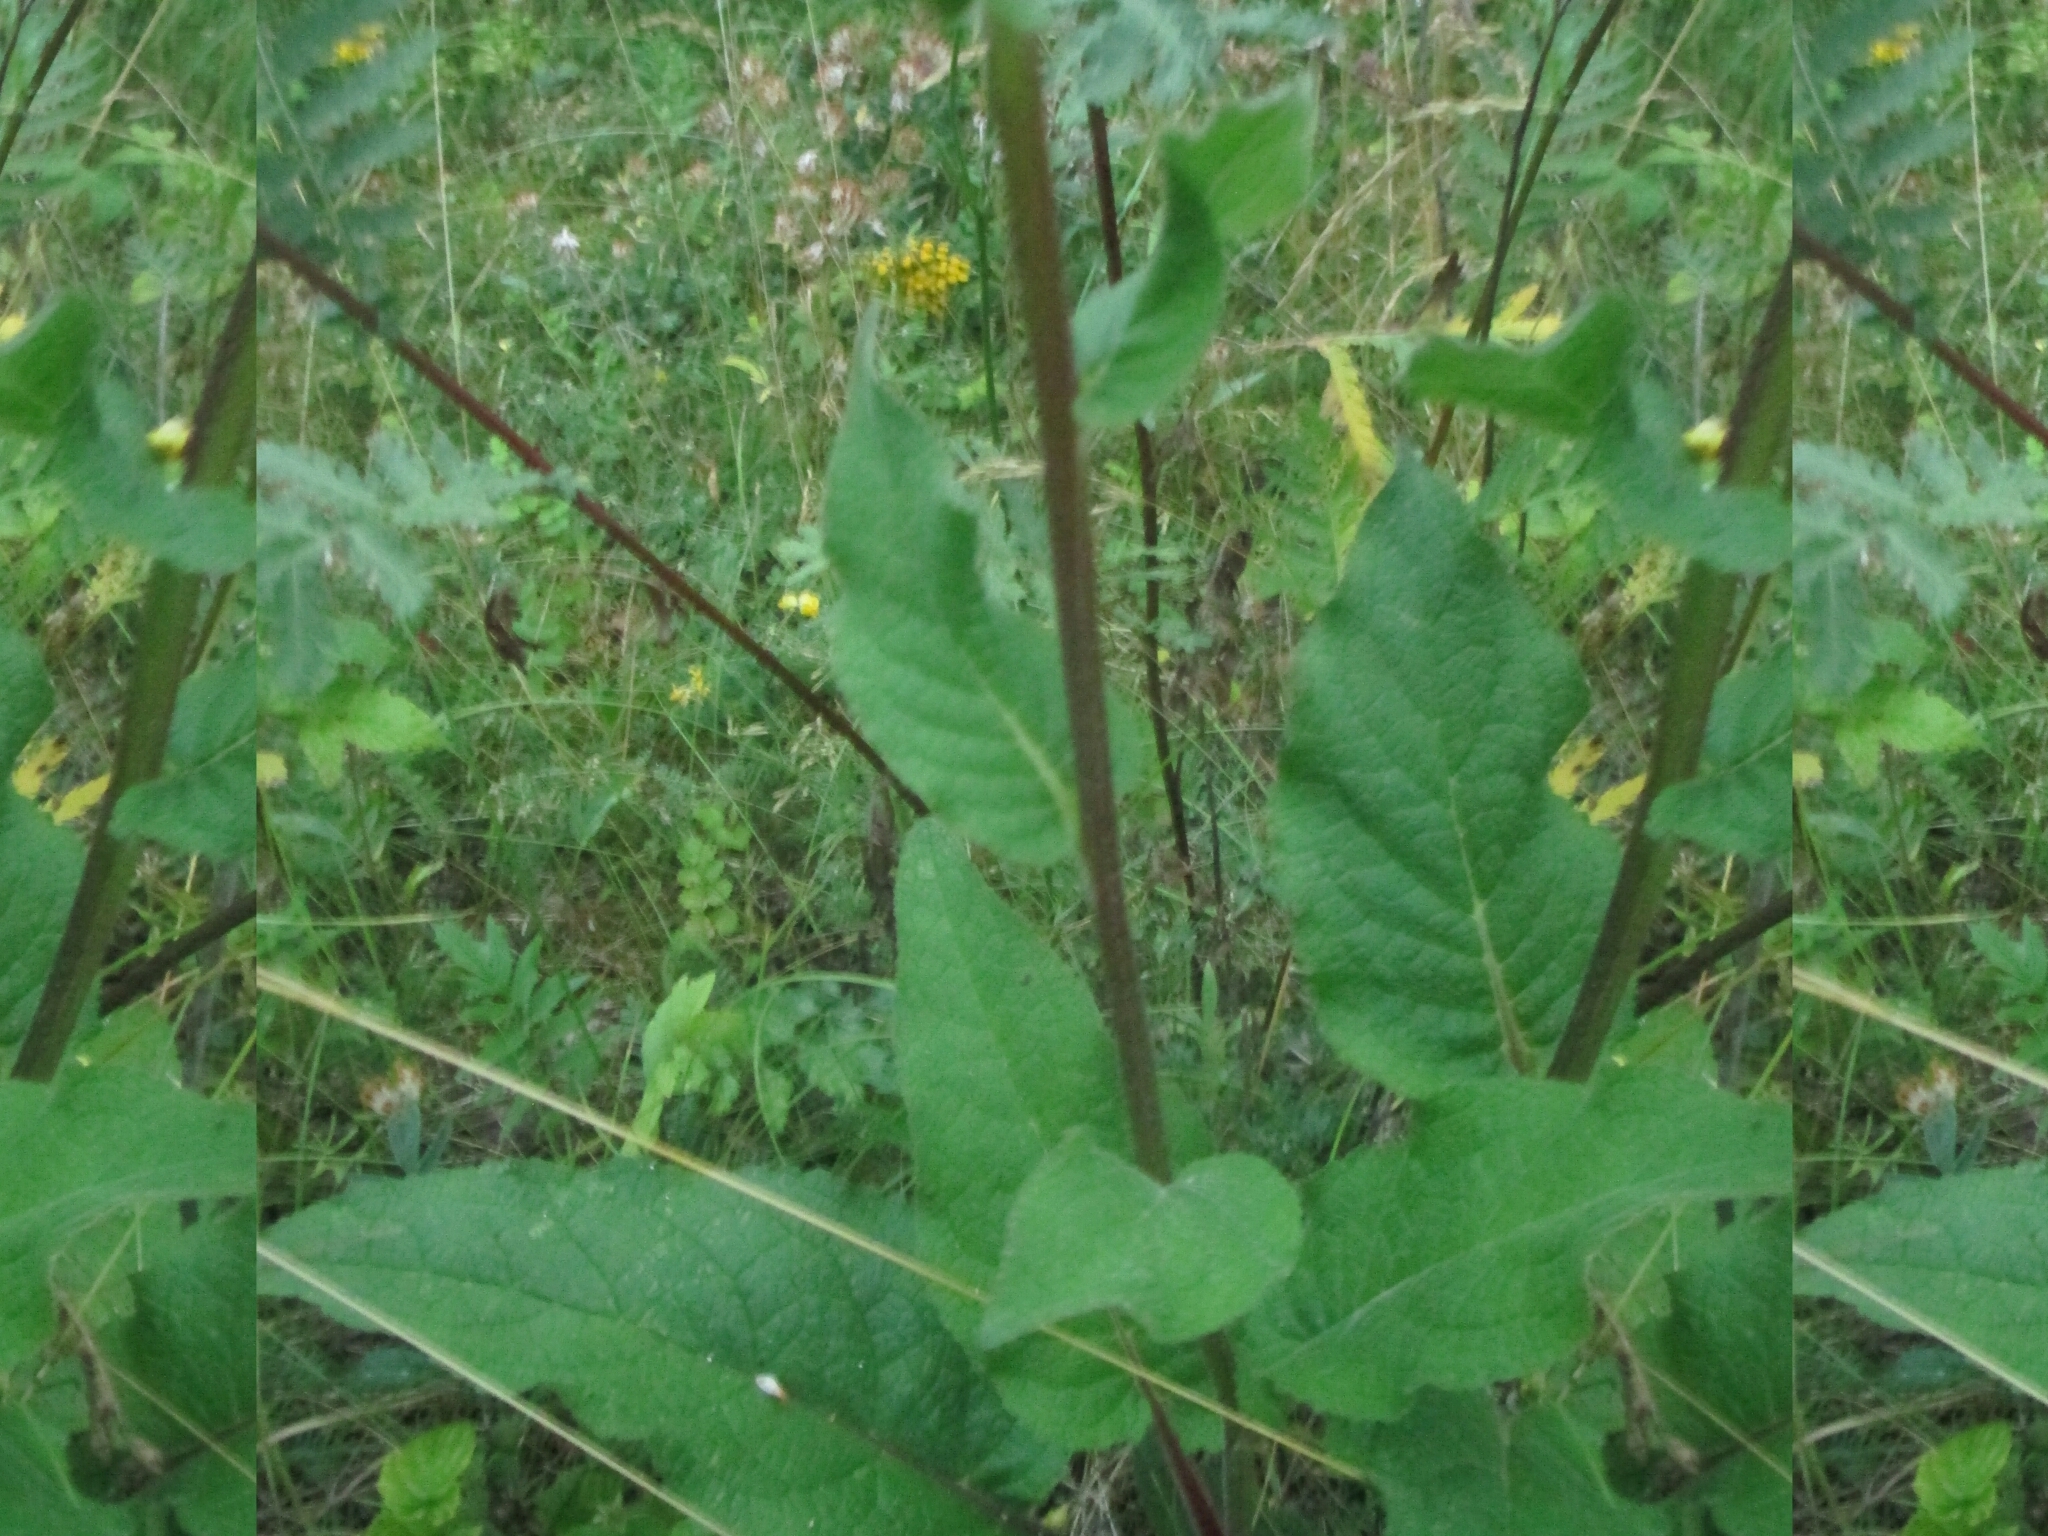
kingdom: Plantae
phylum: Tracheophyta
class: Magnoliopsida
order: Lamiales
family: Scrophulariaceae
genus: Verbascum
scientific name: Verbascum nigrum
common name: Dark mullein
